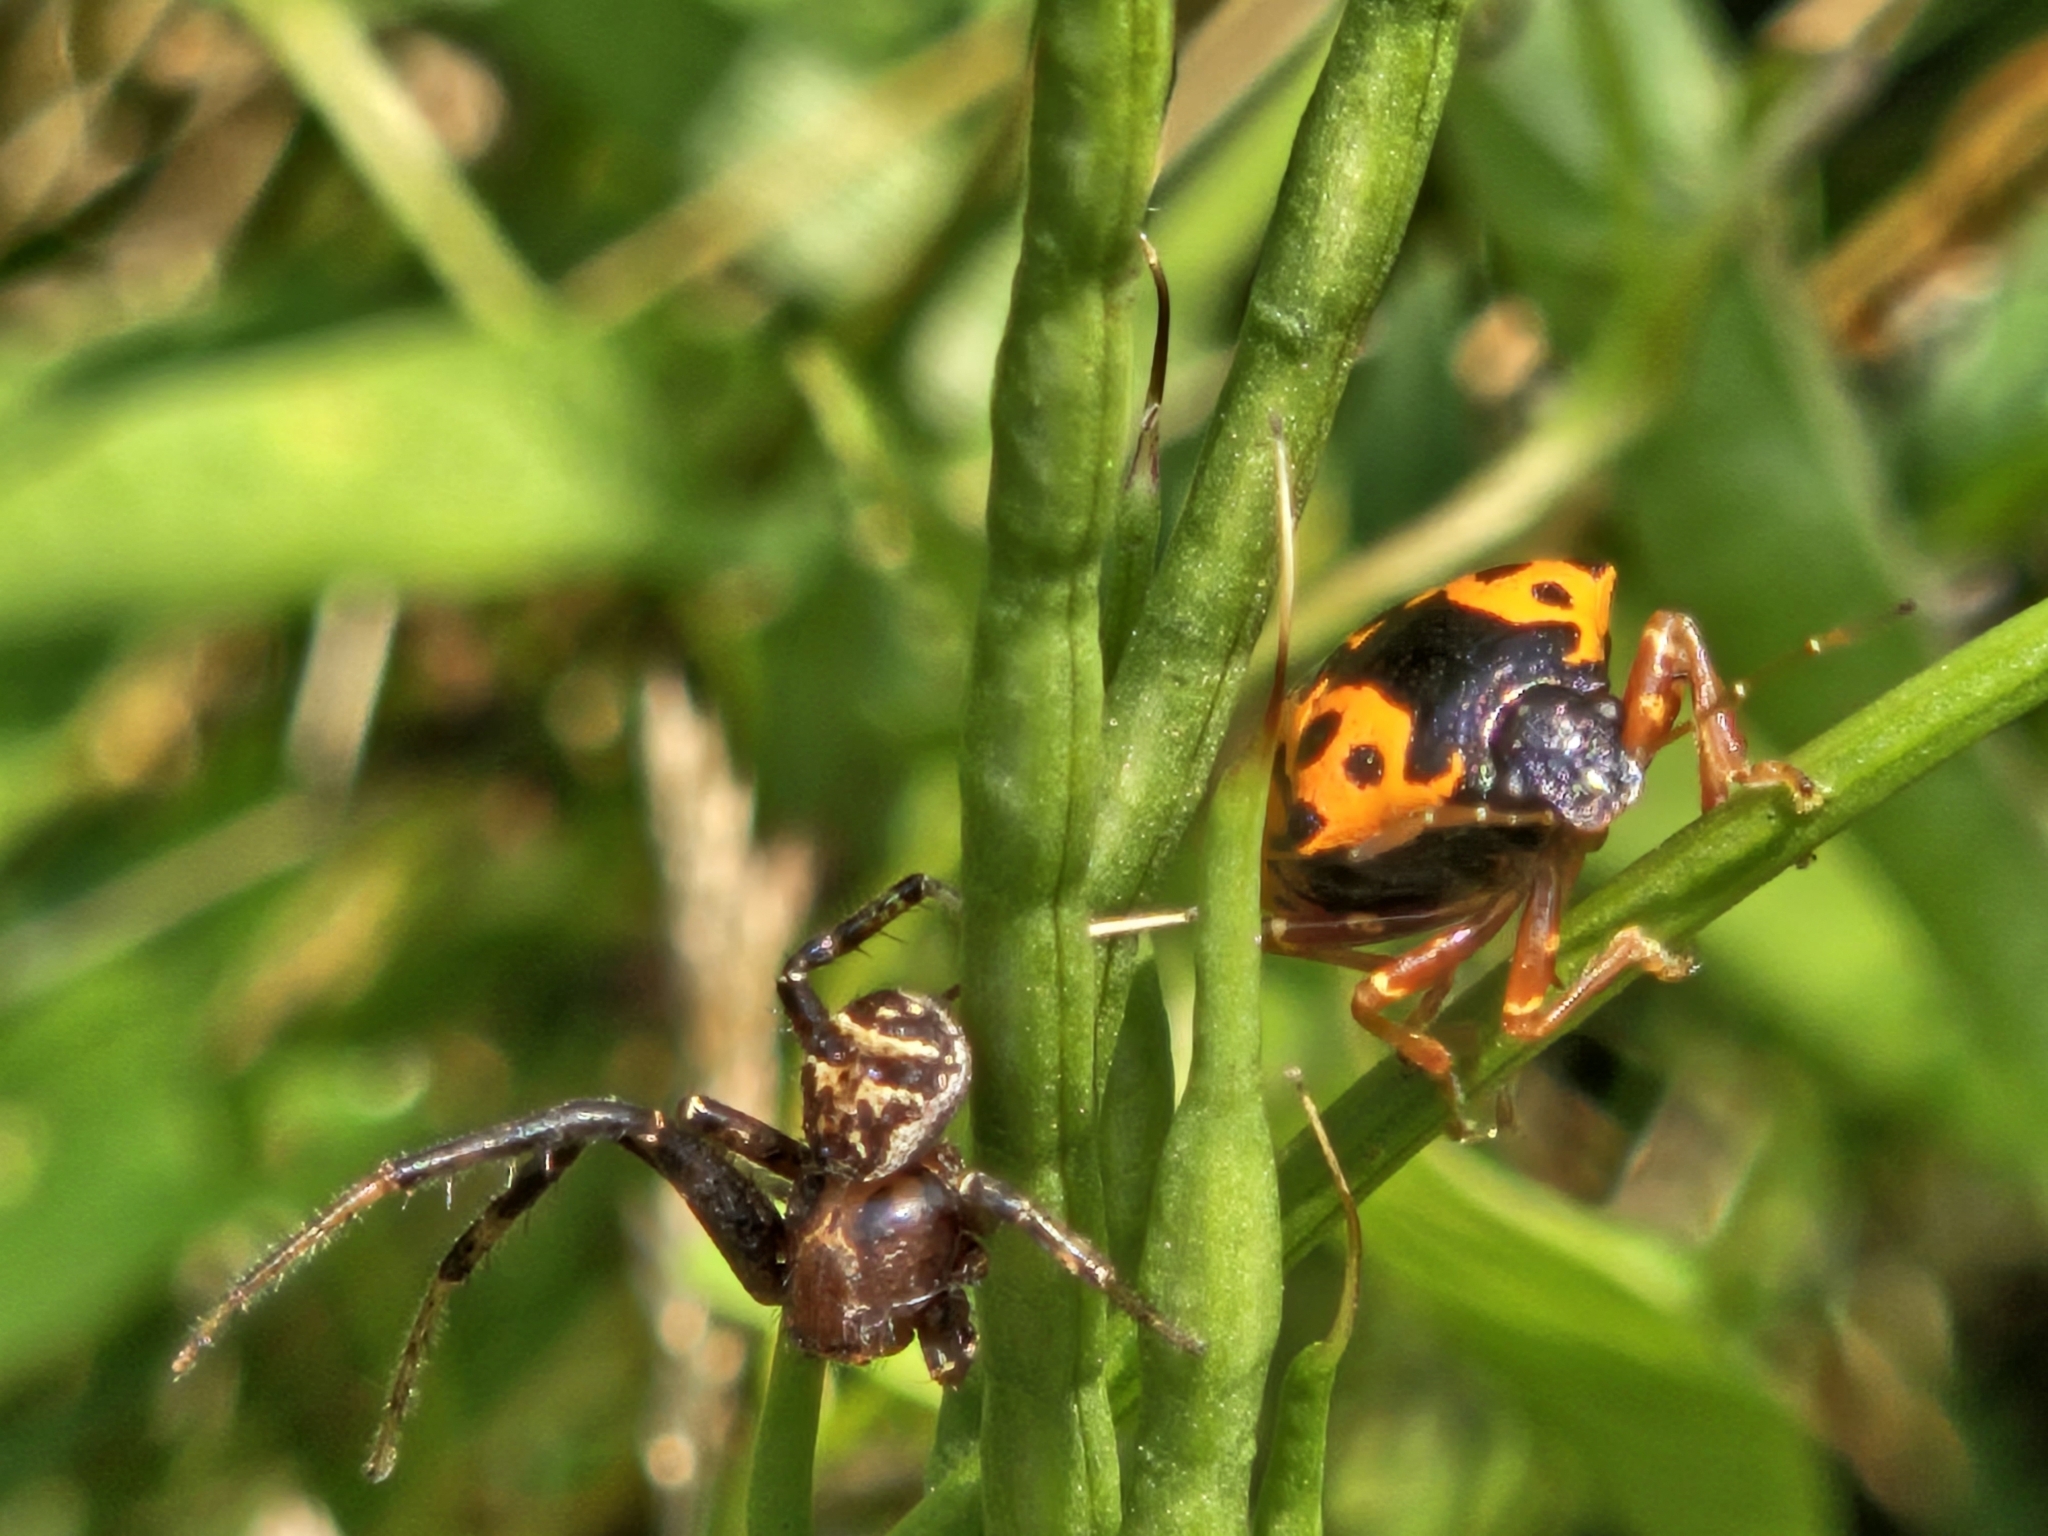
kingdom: Animalia
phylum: Arthropoda
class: Insecta
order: Hemiptera
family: Pentatomidae
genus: Stiretrus
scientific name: Stiretrus anchorago
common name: Anchor stink bug
